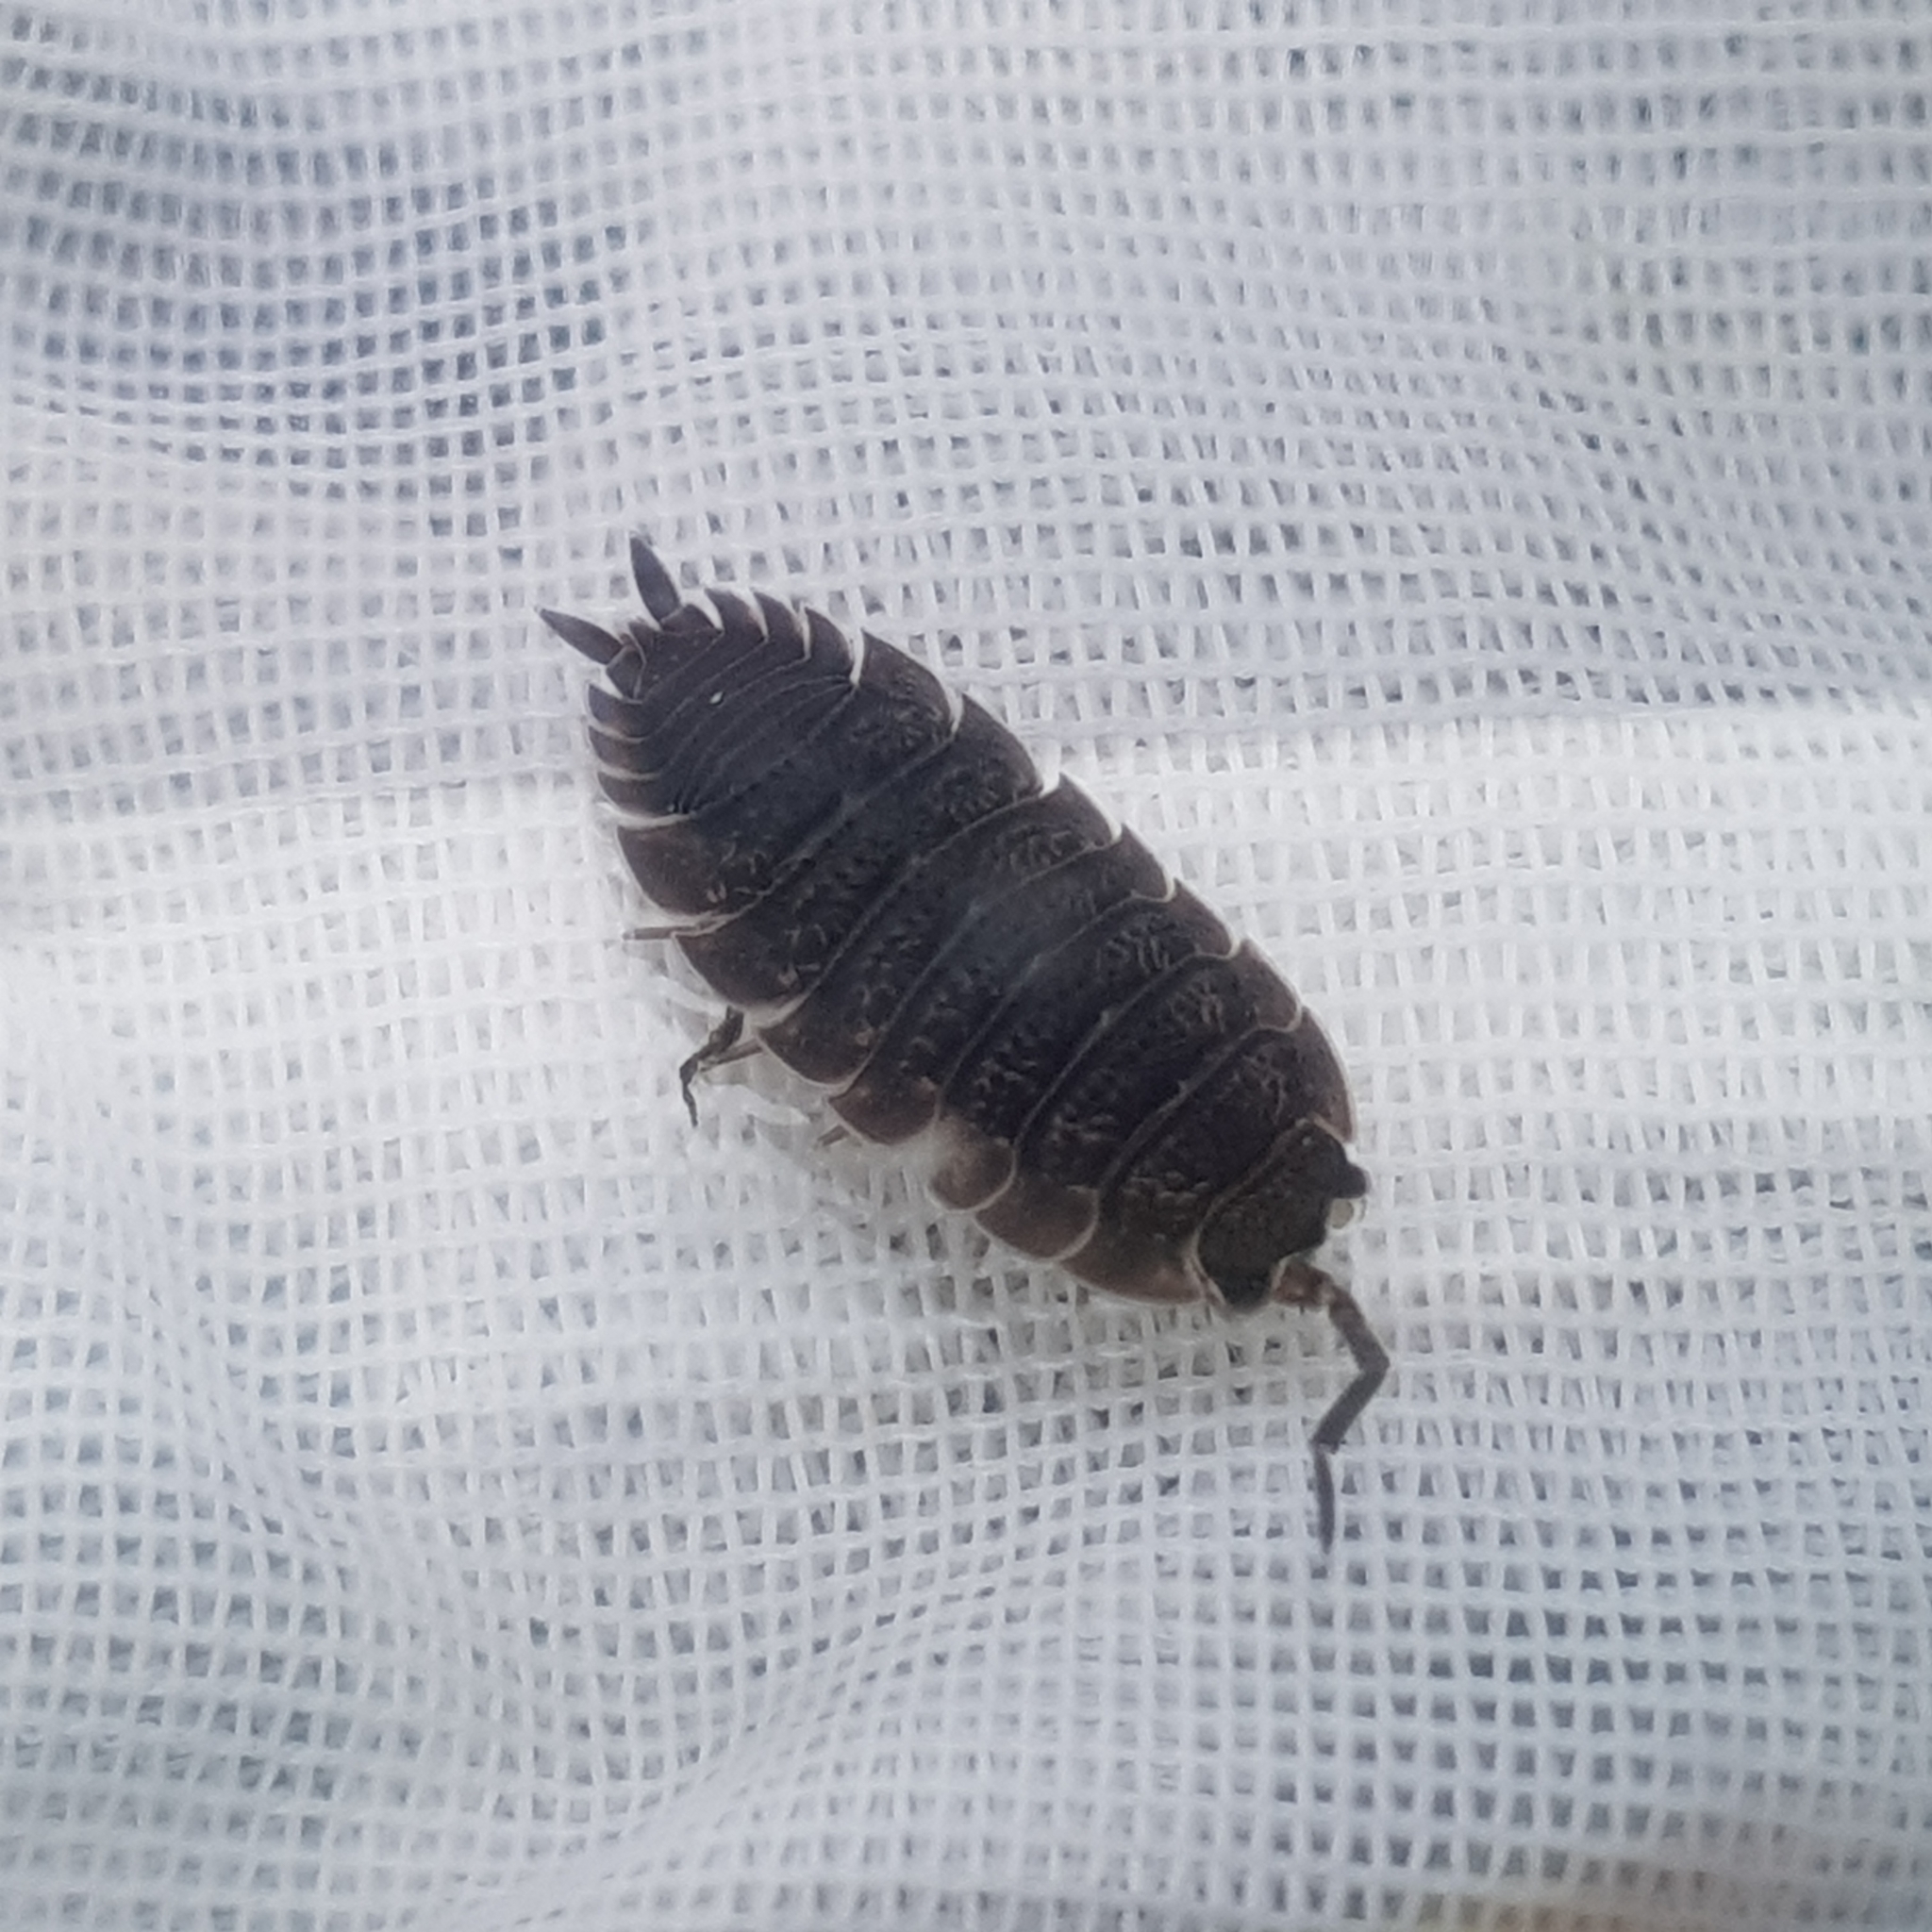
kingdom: Animalia
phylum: Arthropoda
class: Malacostraca
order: Isopoda
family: Porcellionidae
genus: Porcellio
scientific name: Porcellio scaber
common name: Common rough woodlouse
